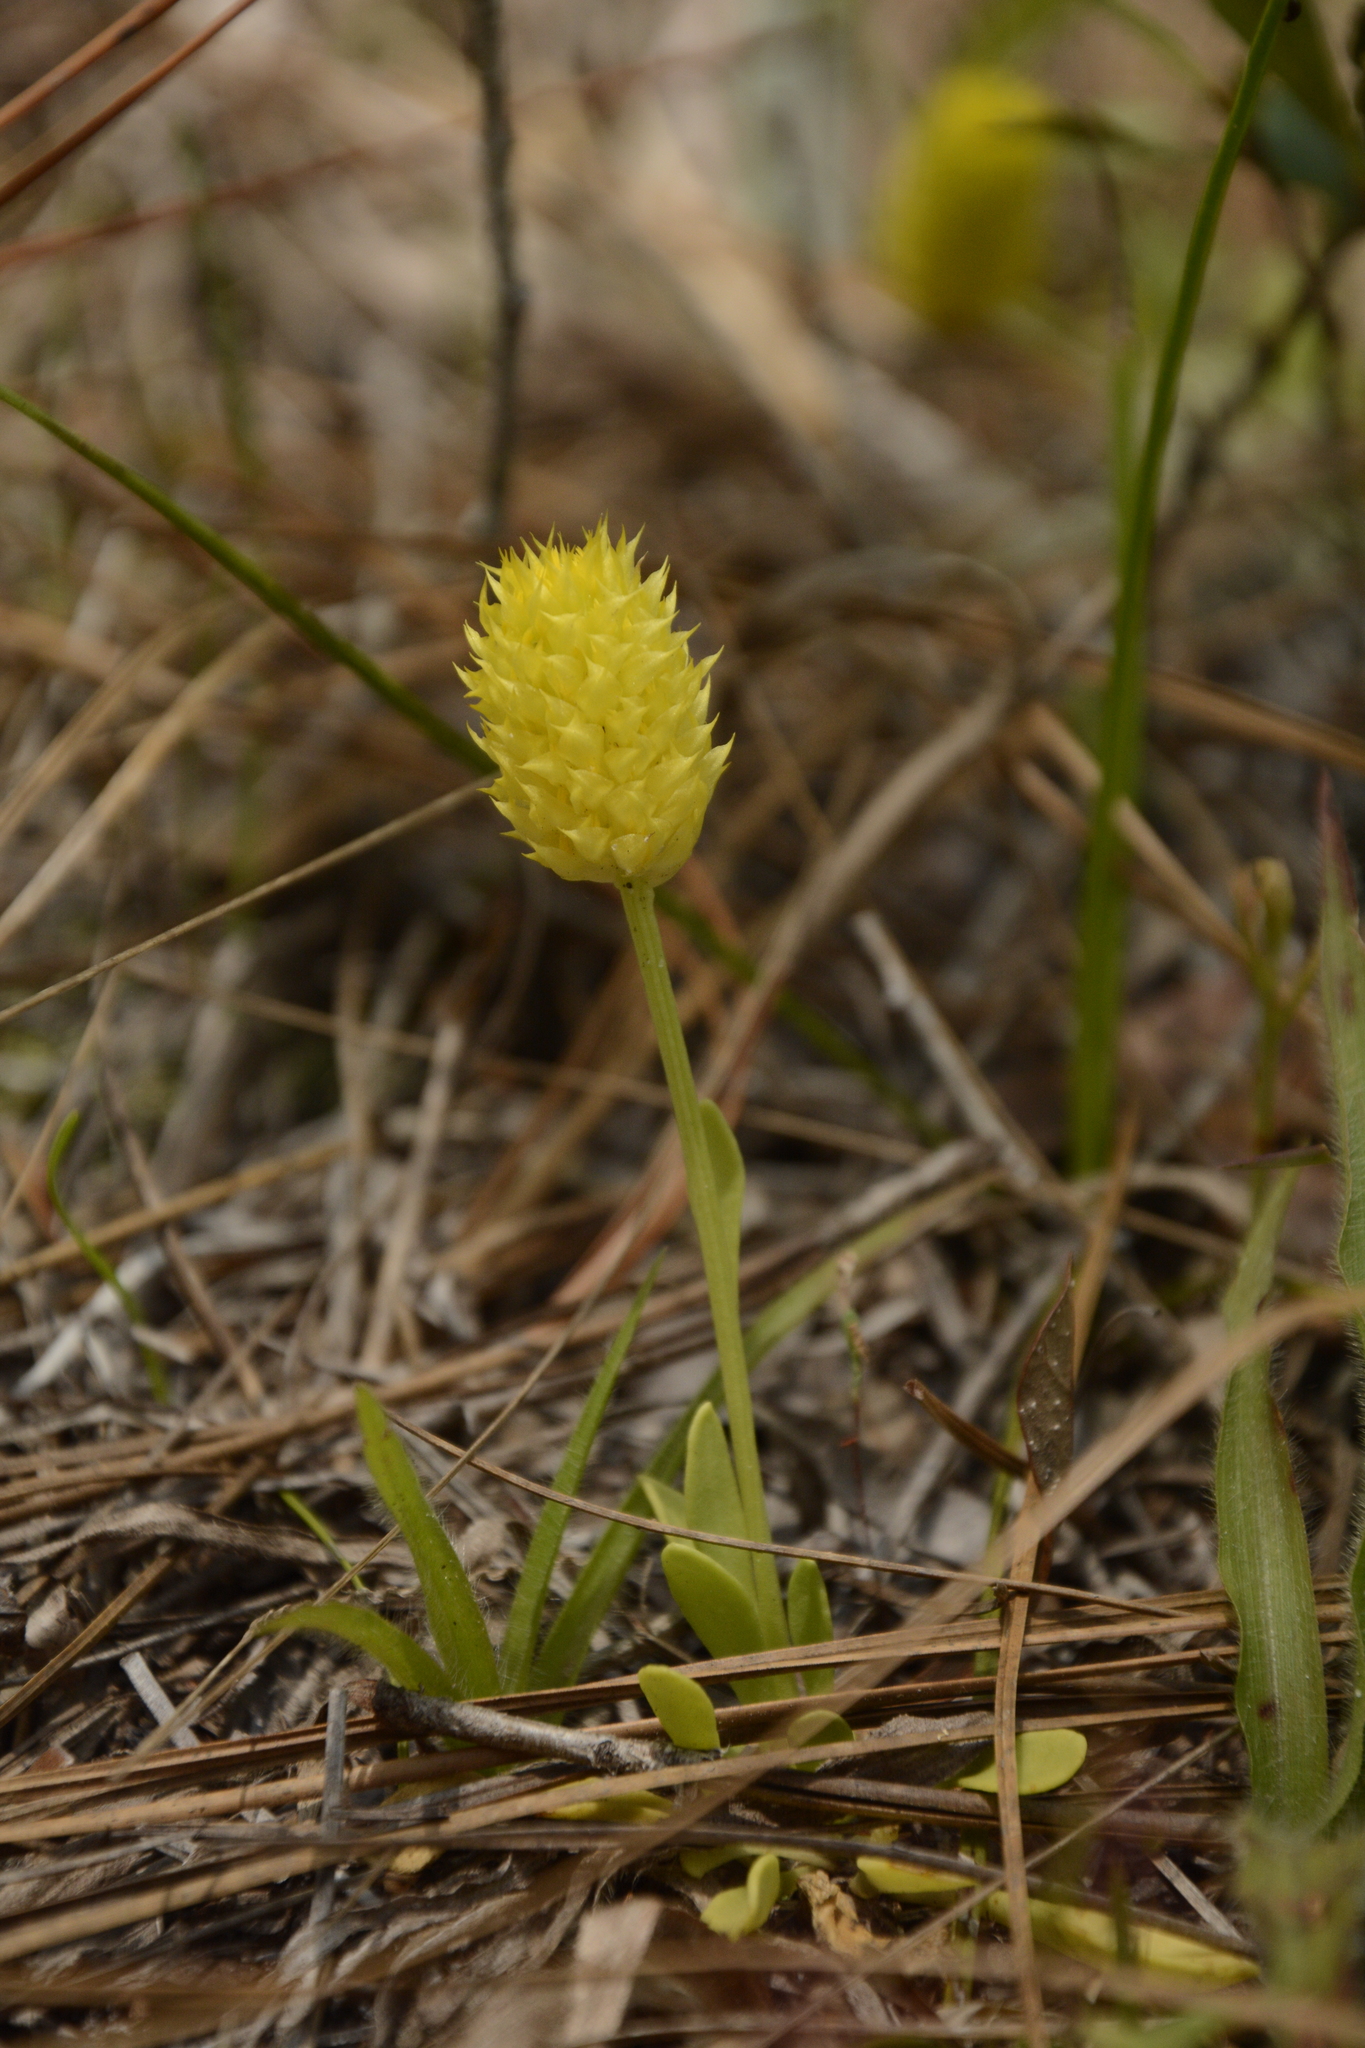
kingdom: Plantae
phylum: Tracheophyta
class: Magnoliopsida
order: Fabales
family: Polygalaceae
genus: Polygala
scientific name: Polygala nana
